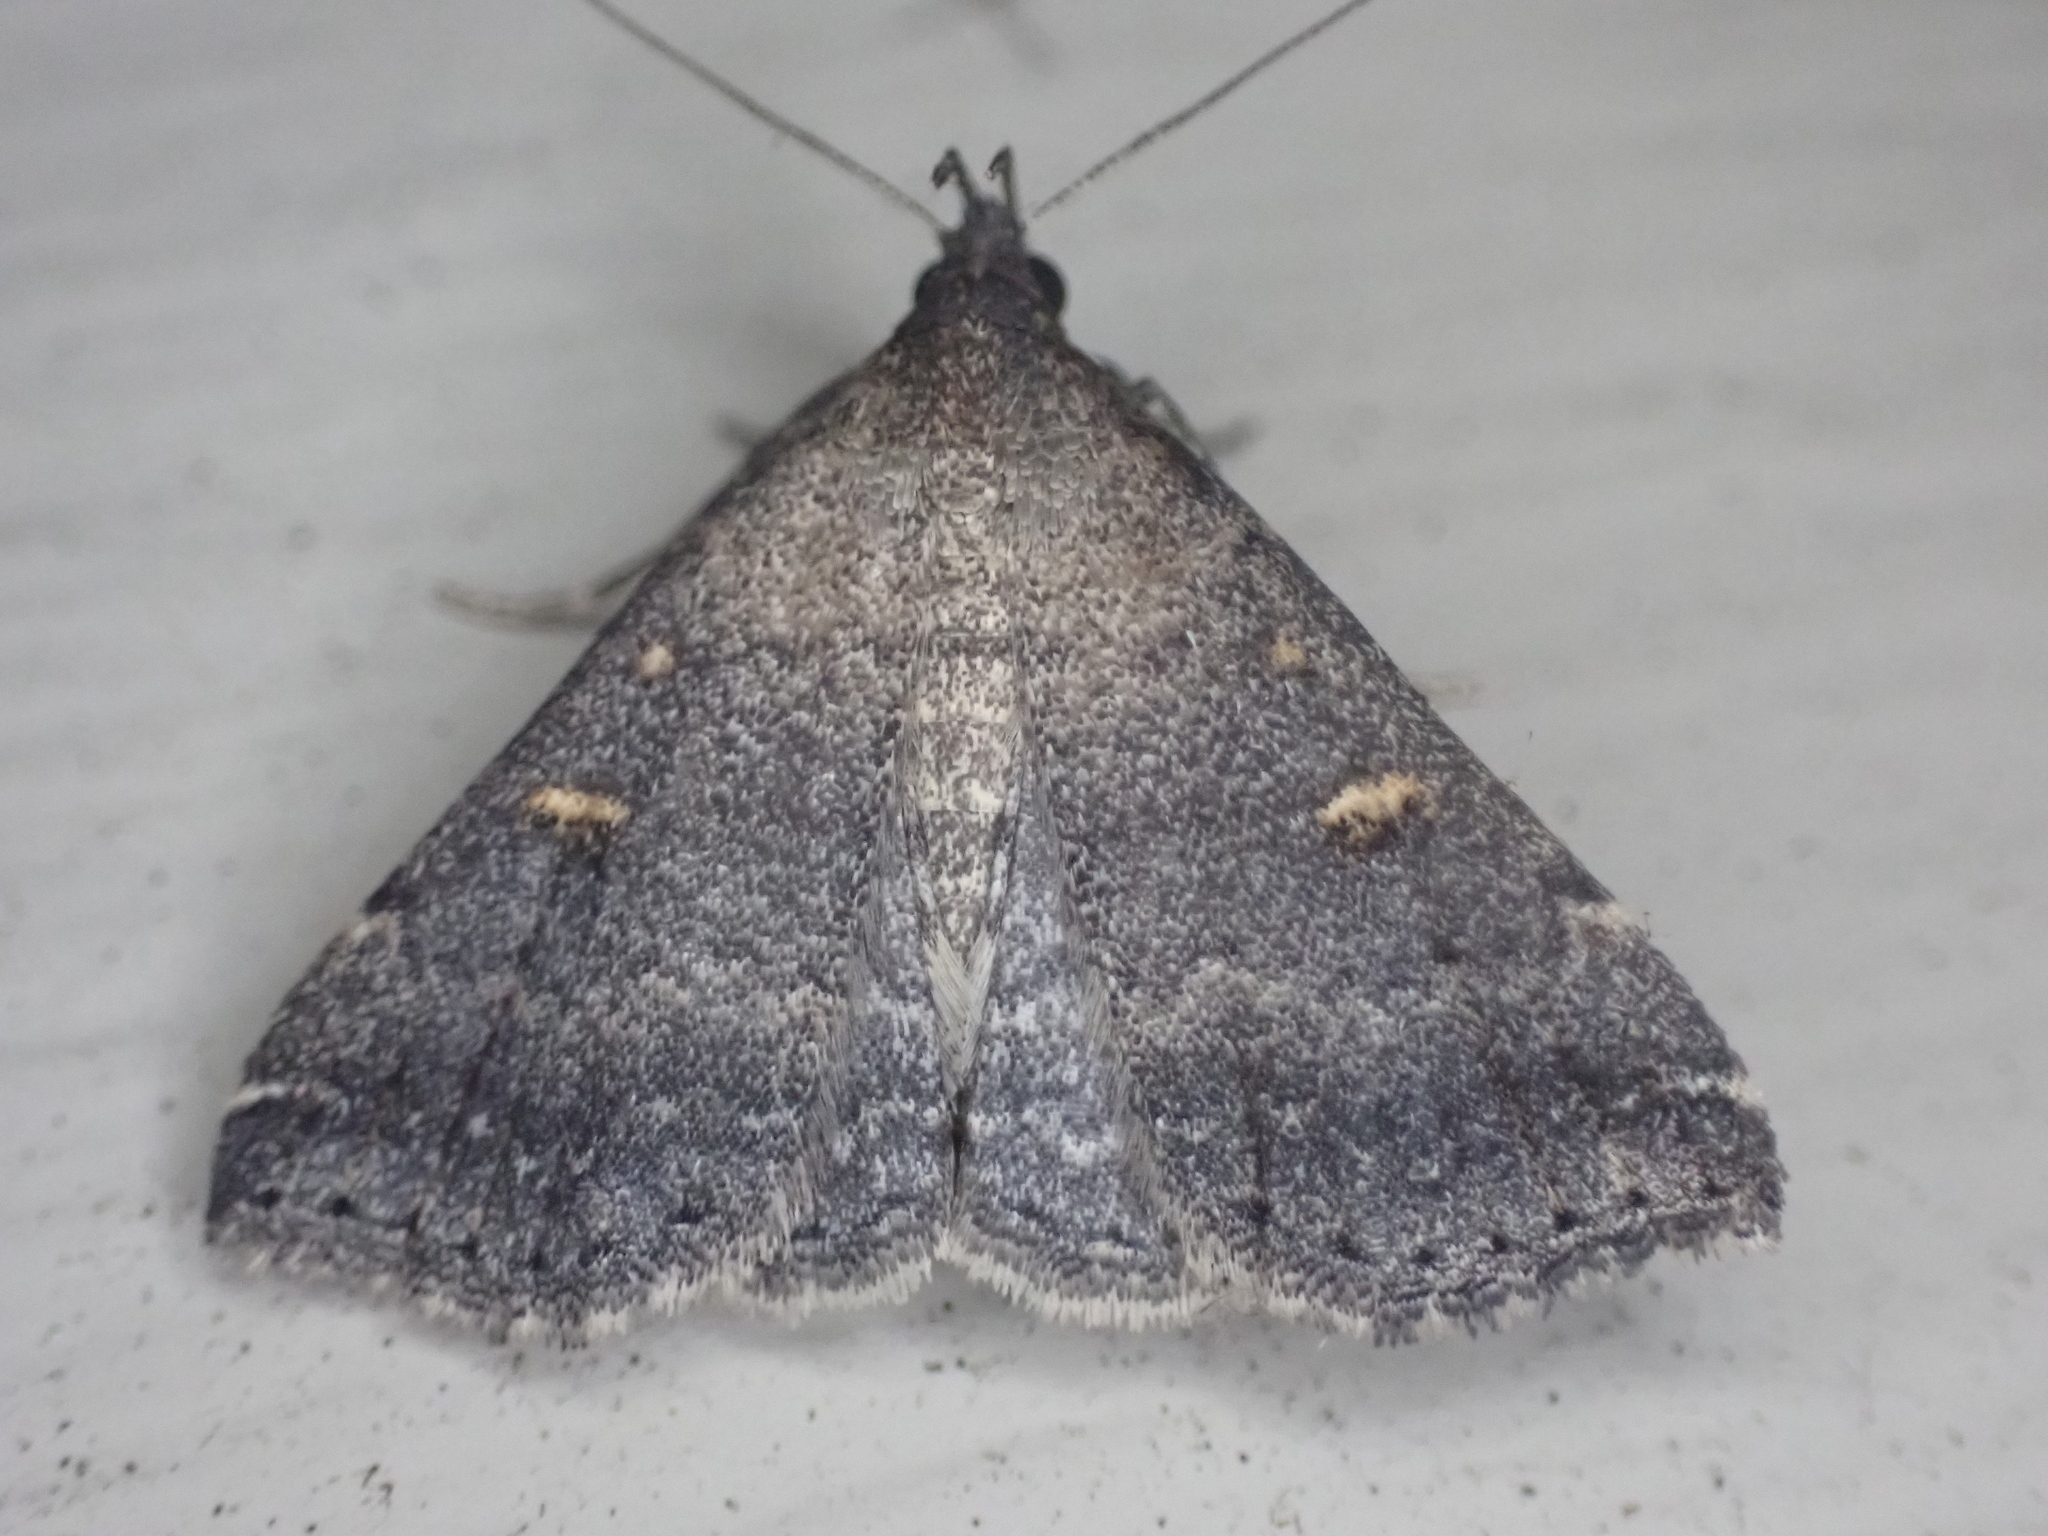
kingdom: Animalia
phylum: Arthropoda
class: Insecta
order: Lepidoptera
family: Erebidae
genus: Tetanolita
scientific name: Tetanolita mynesalis
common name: Smoky tetanolita moth
